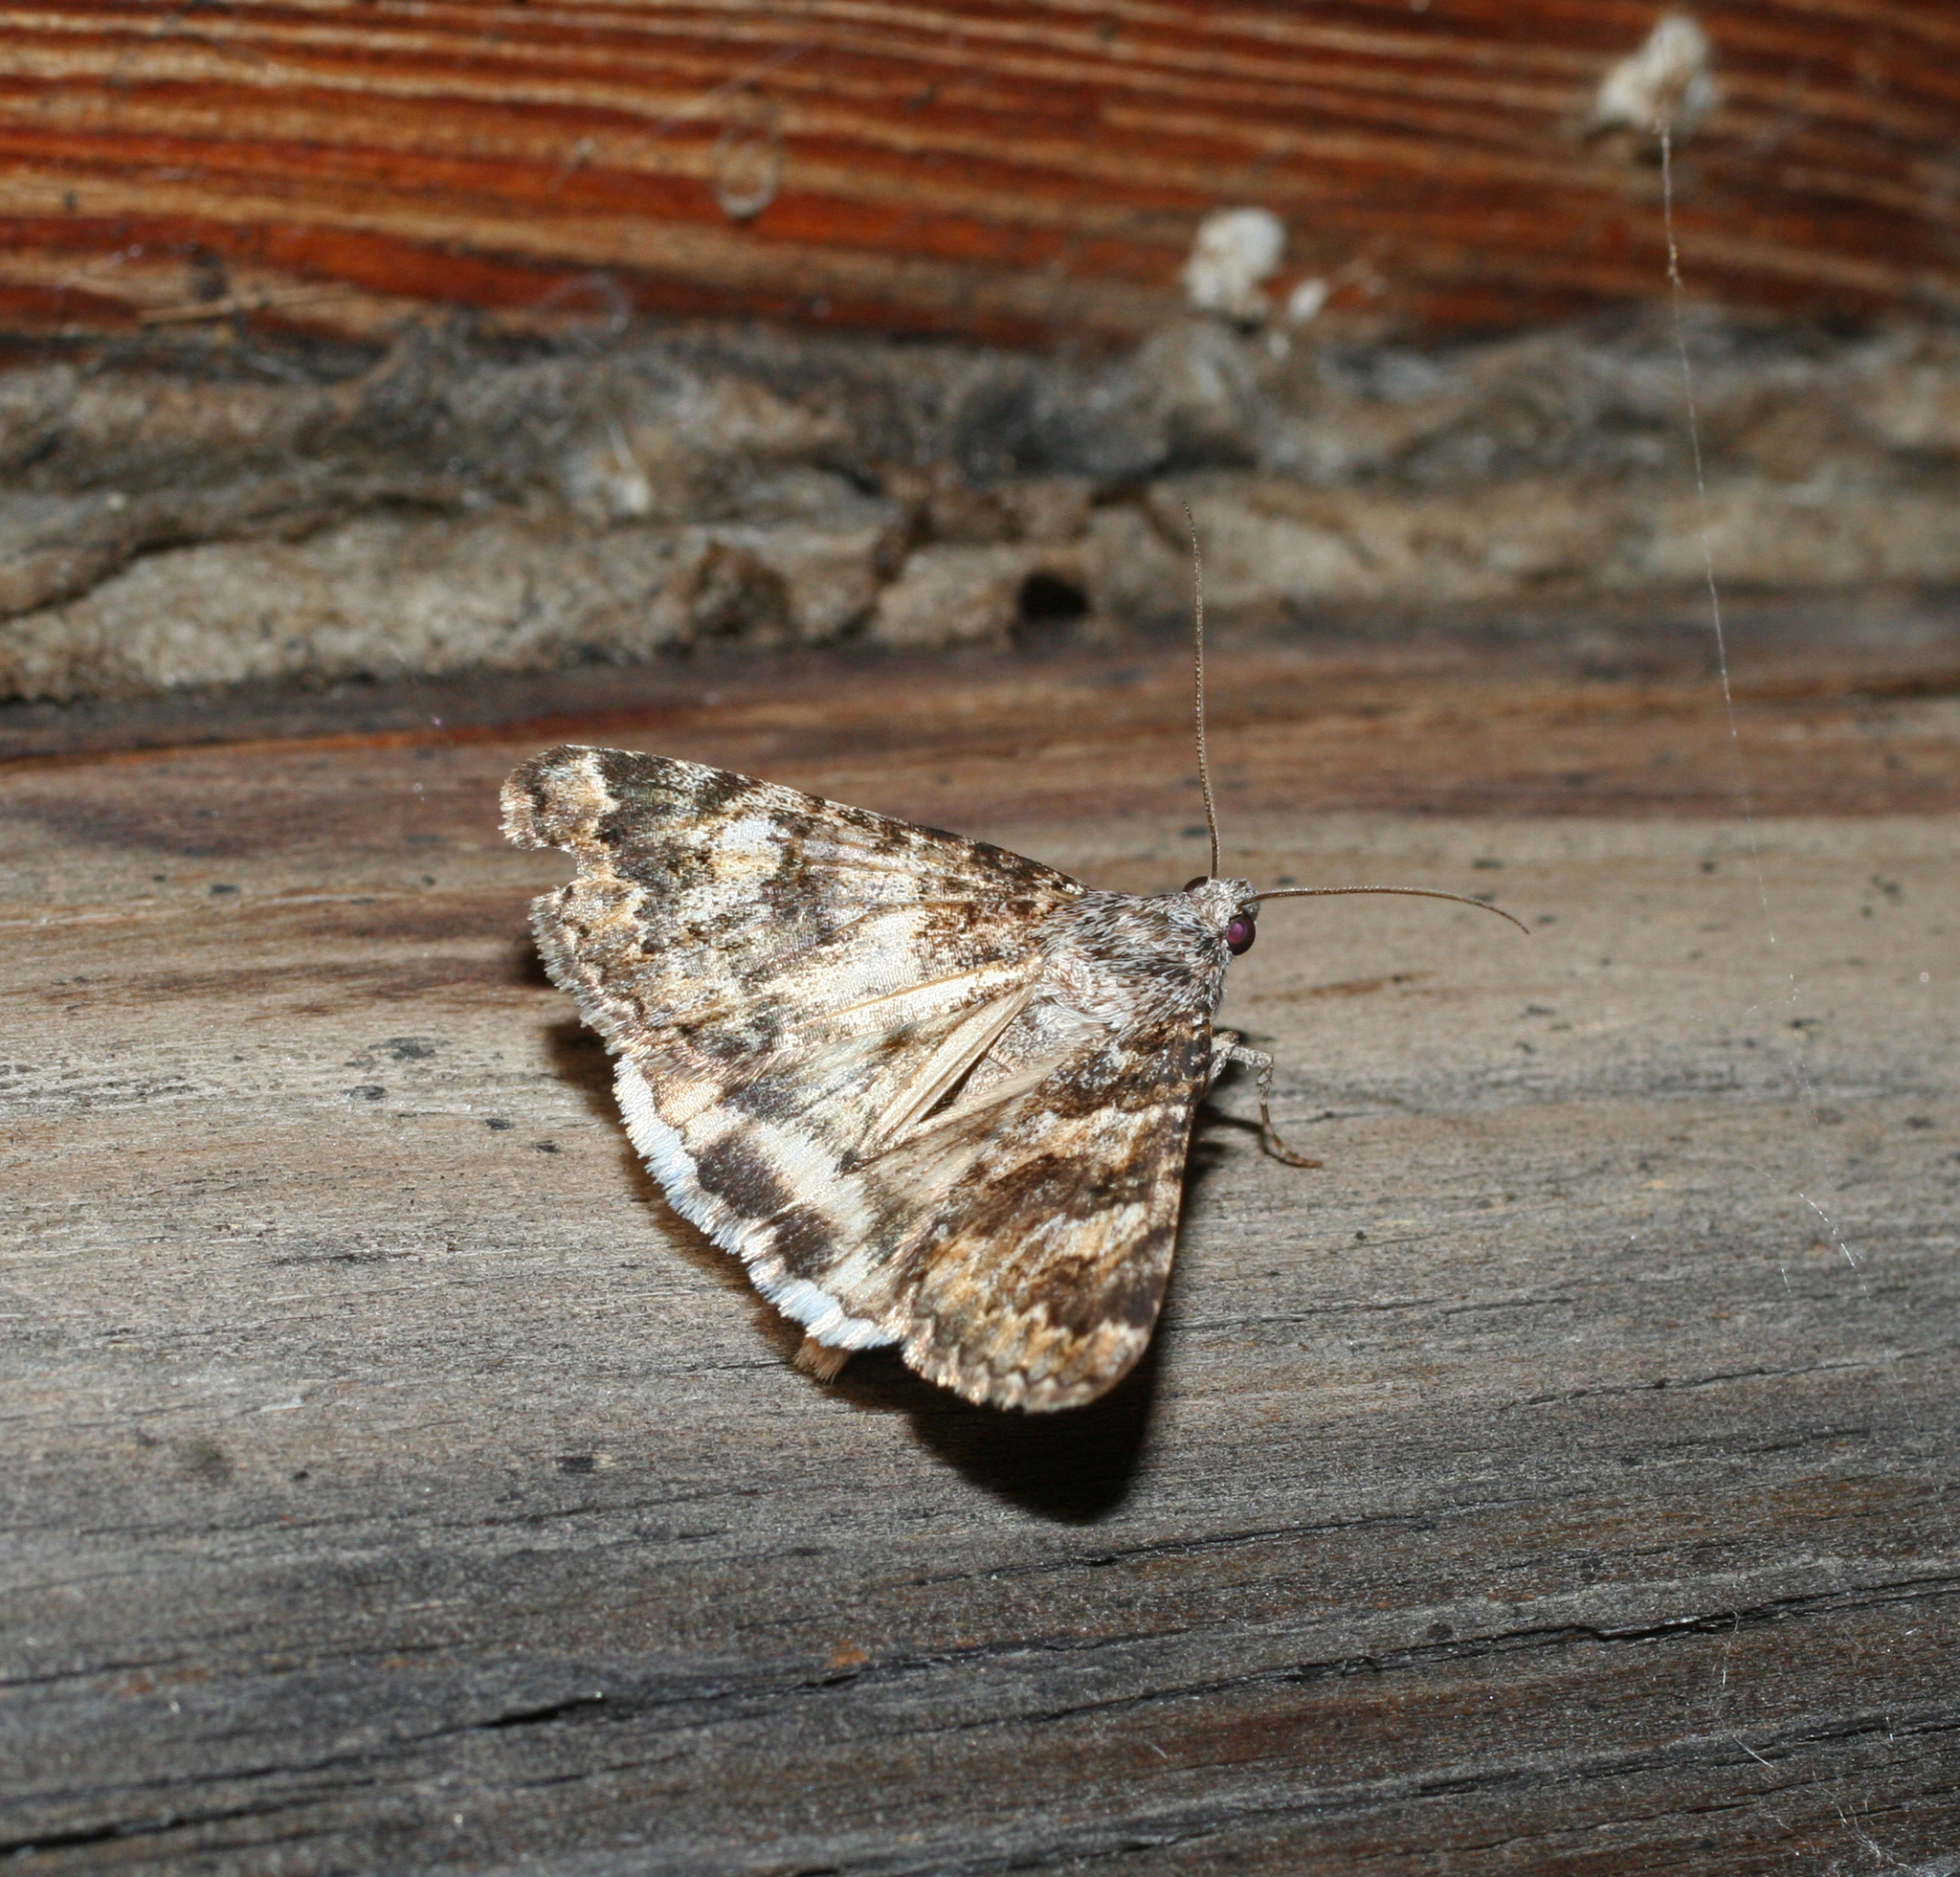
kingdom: Animalia
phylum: Arthropoda
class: Insecta
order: Lepidoptera
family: Erebidae
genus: Drasteria
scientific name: Drasteria mongoliensis
